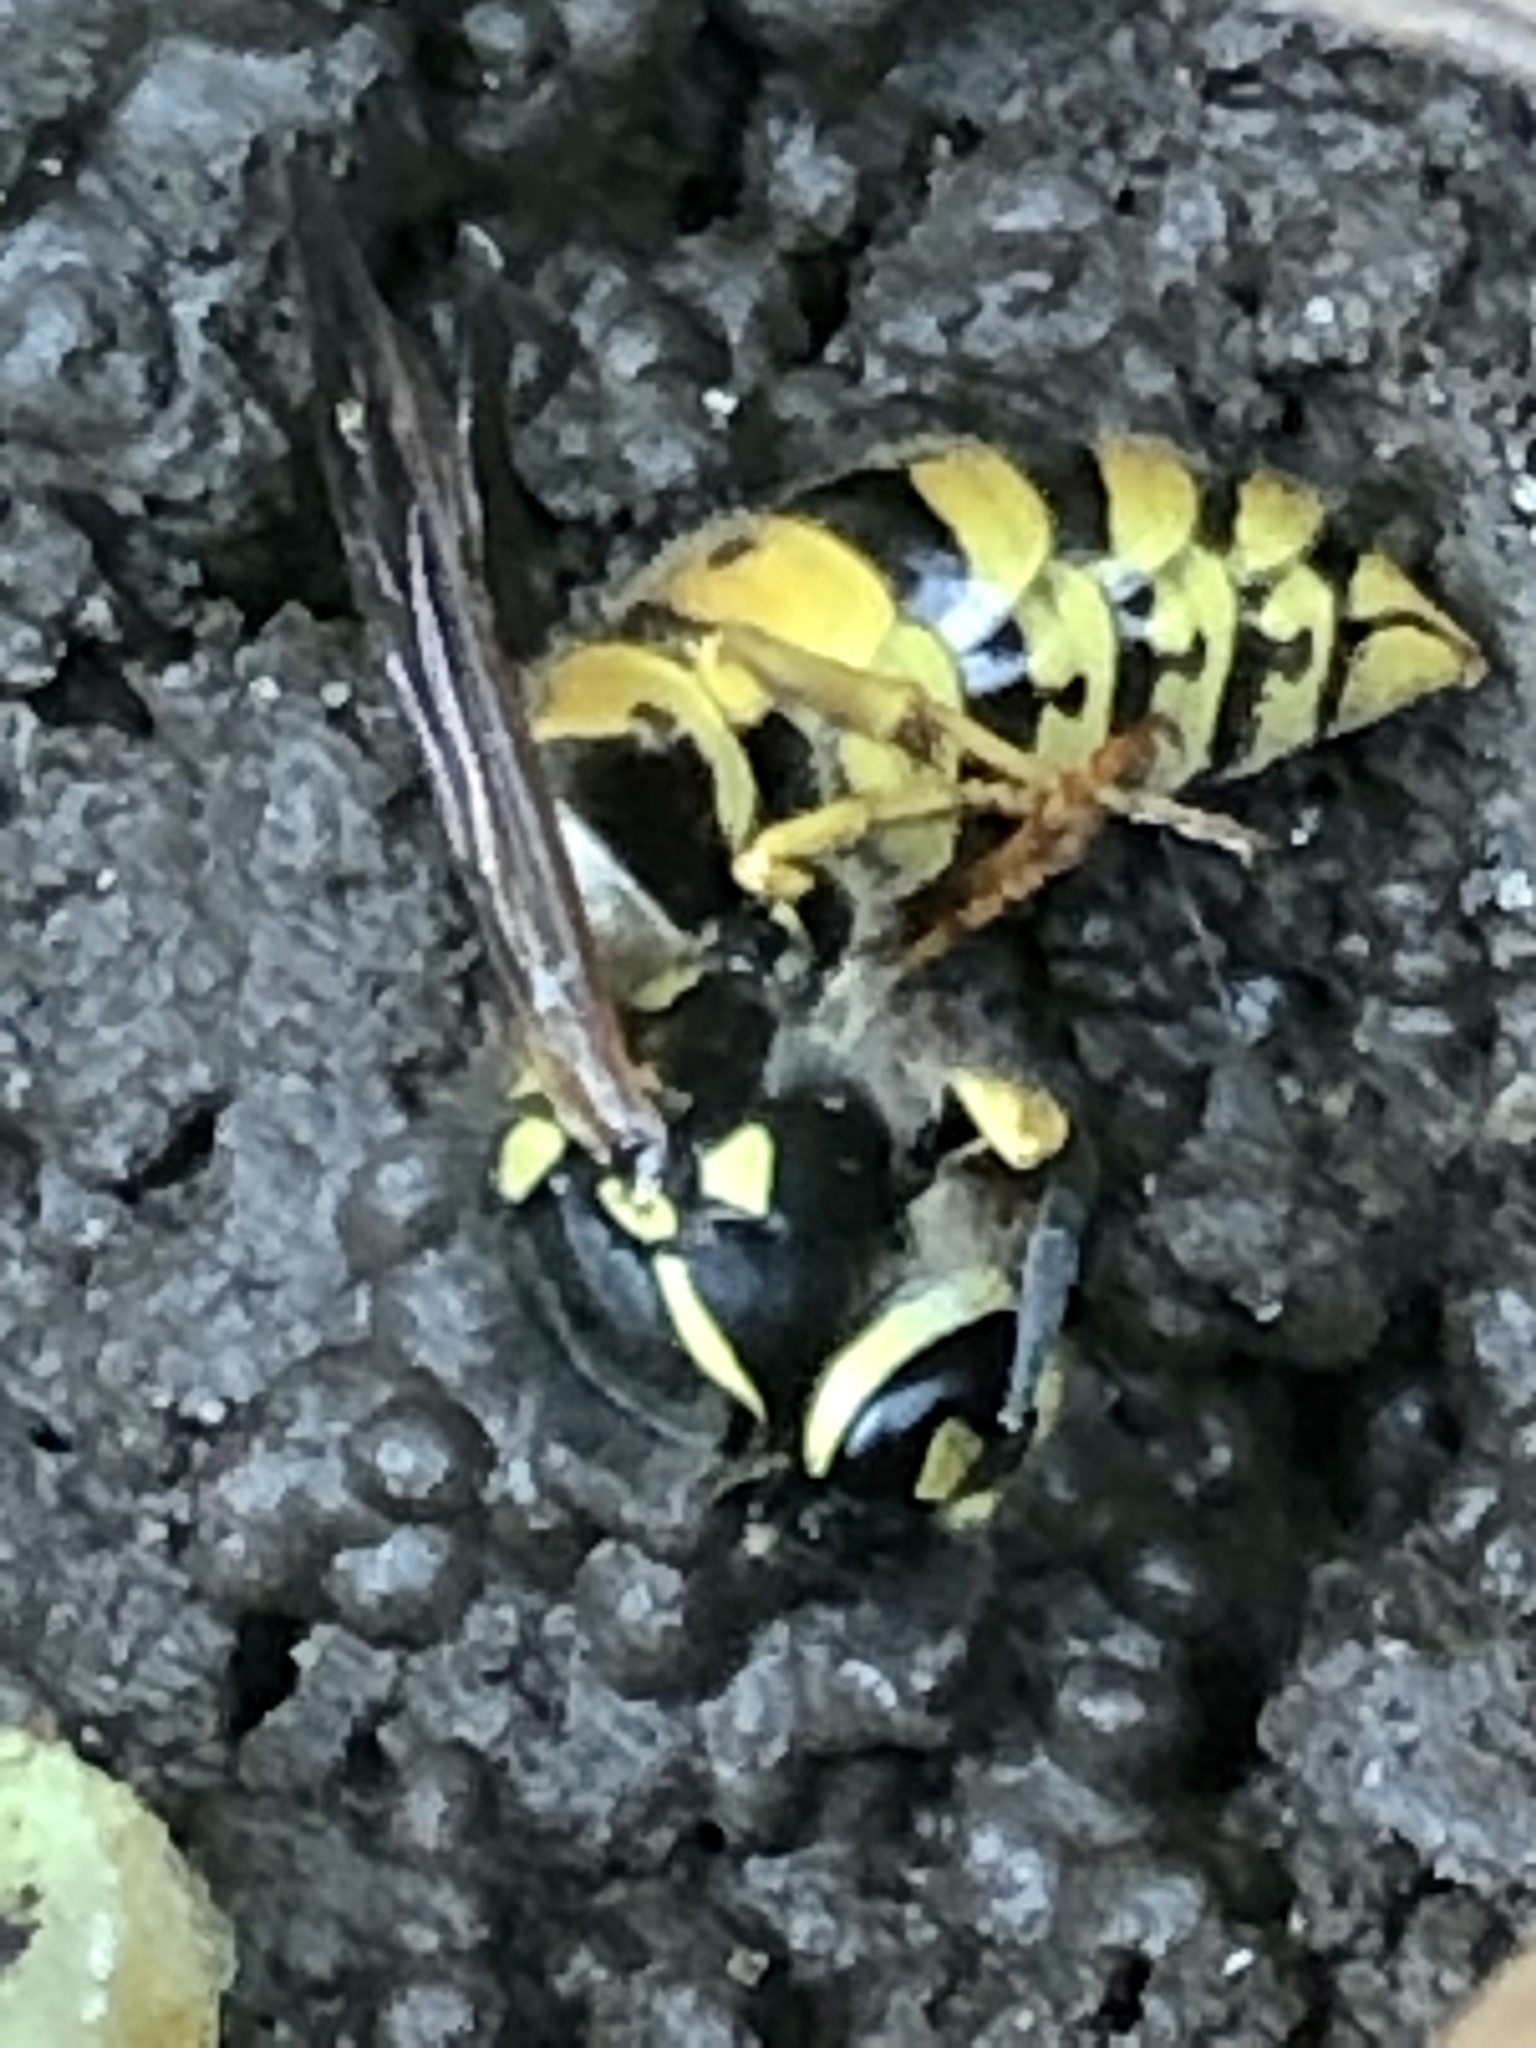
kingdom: Animalia
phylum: Arthropoda
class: Insecta
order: Hymenoptera
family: Vespidae
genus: Vespula
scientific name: Vespula germanica
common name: German wasp
